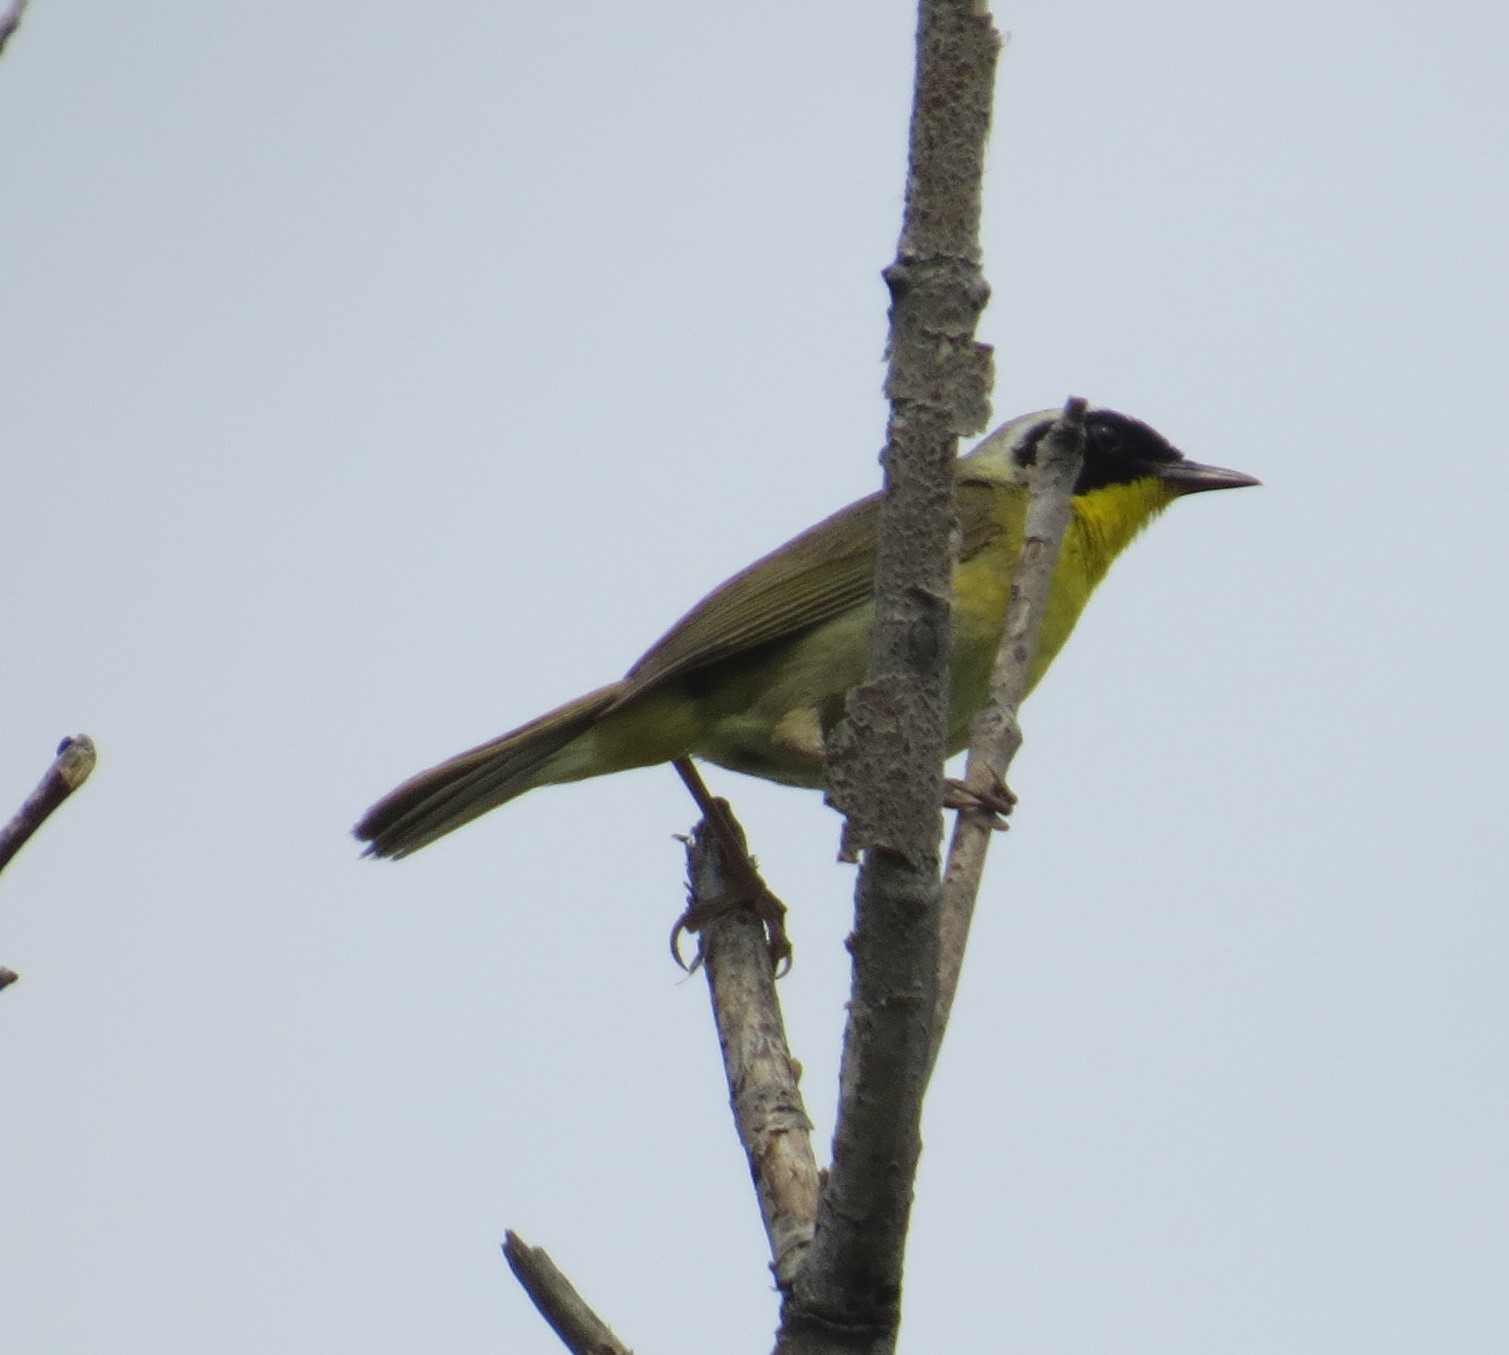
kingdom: Animalia
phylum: Chordata
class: Aves
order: Passeriformes
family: Parulidae
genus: Geothlypis
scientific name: Geothlypis trichas
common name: Common yellowthroat
